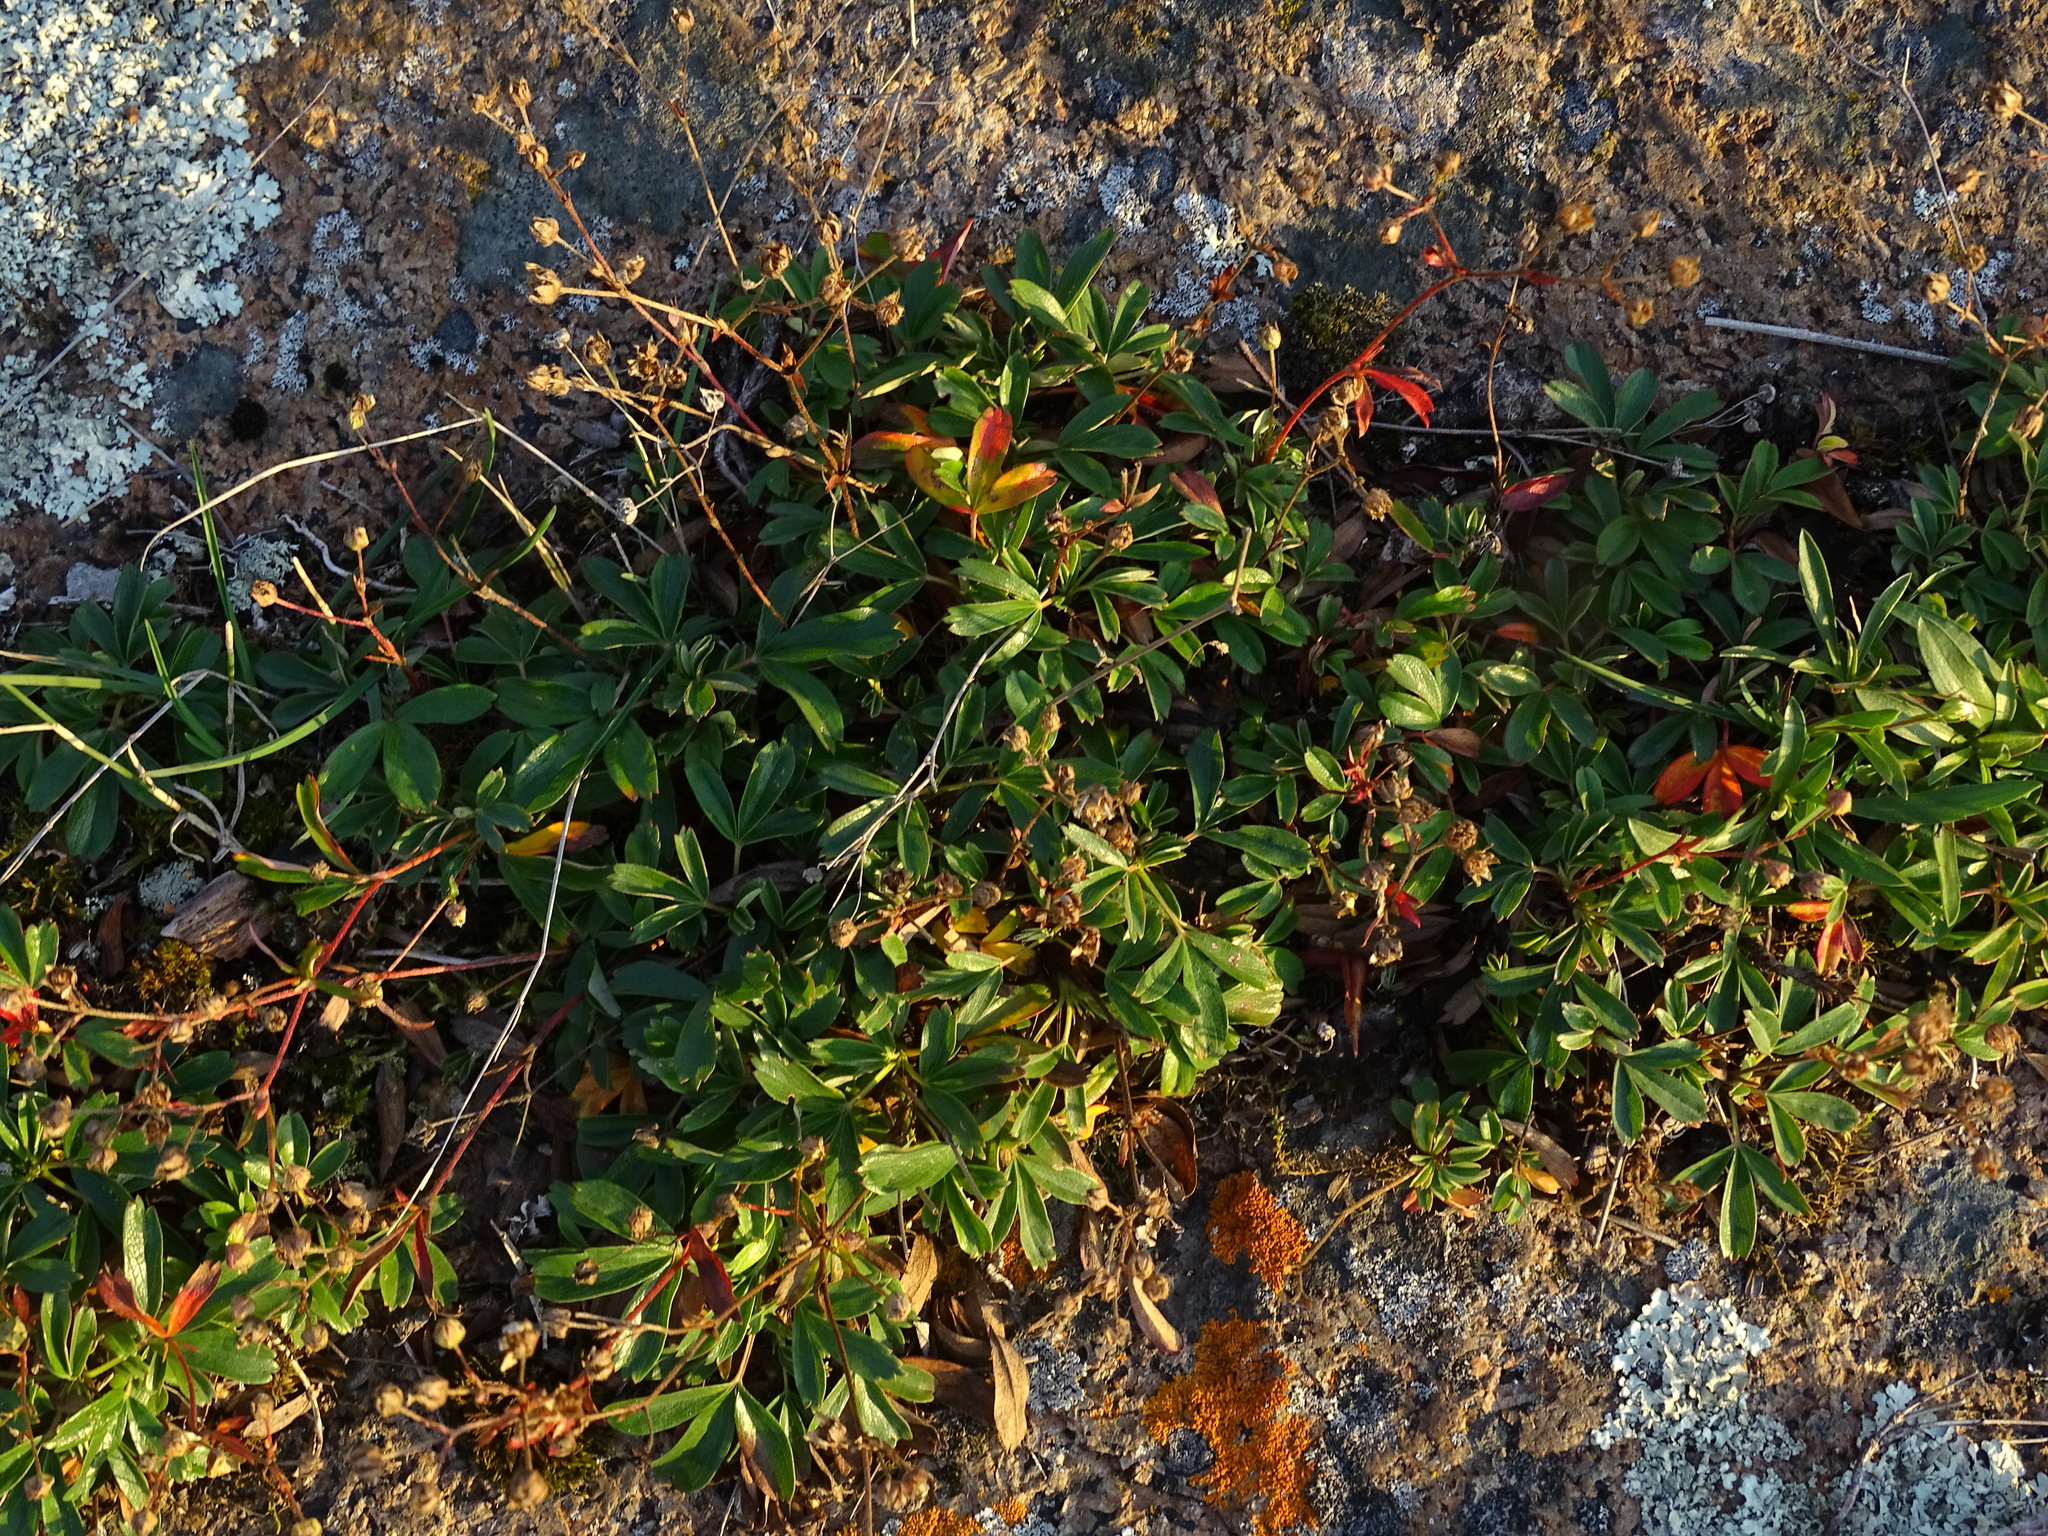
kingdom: Plantae
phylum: Tracheophyta
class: Magnoliopsida
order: Rosales
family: Rosaceae
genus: Sibbaldia
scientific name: Sibbaldia tridentata
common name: Three-toothed cinquefoil
